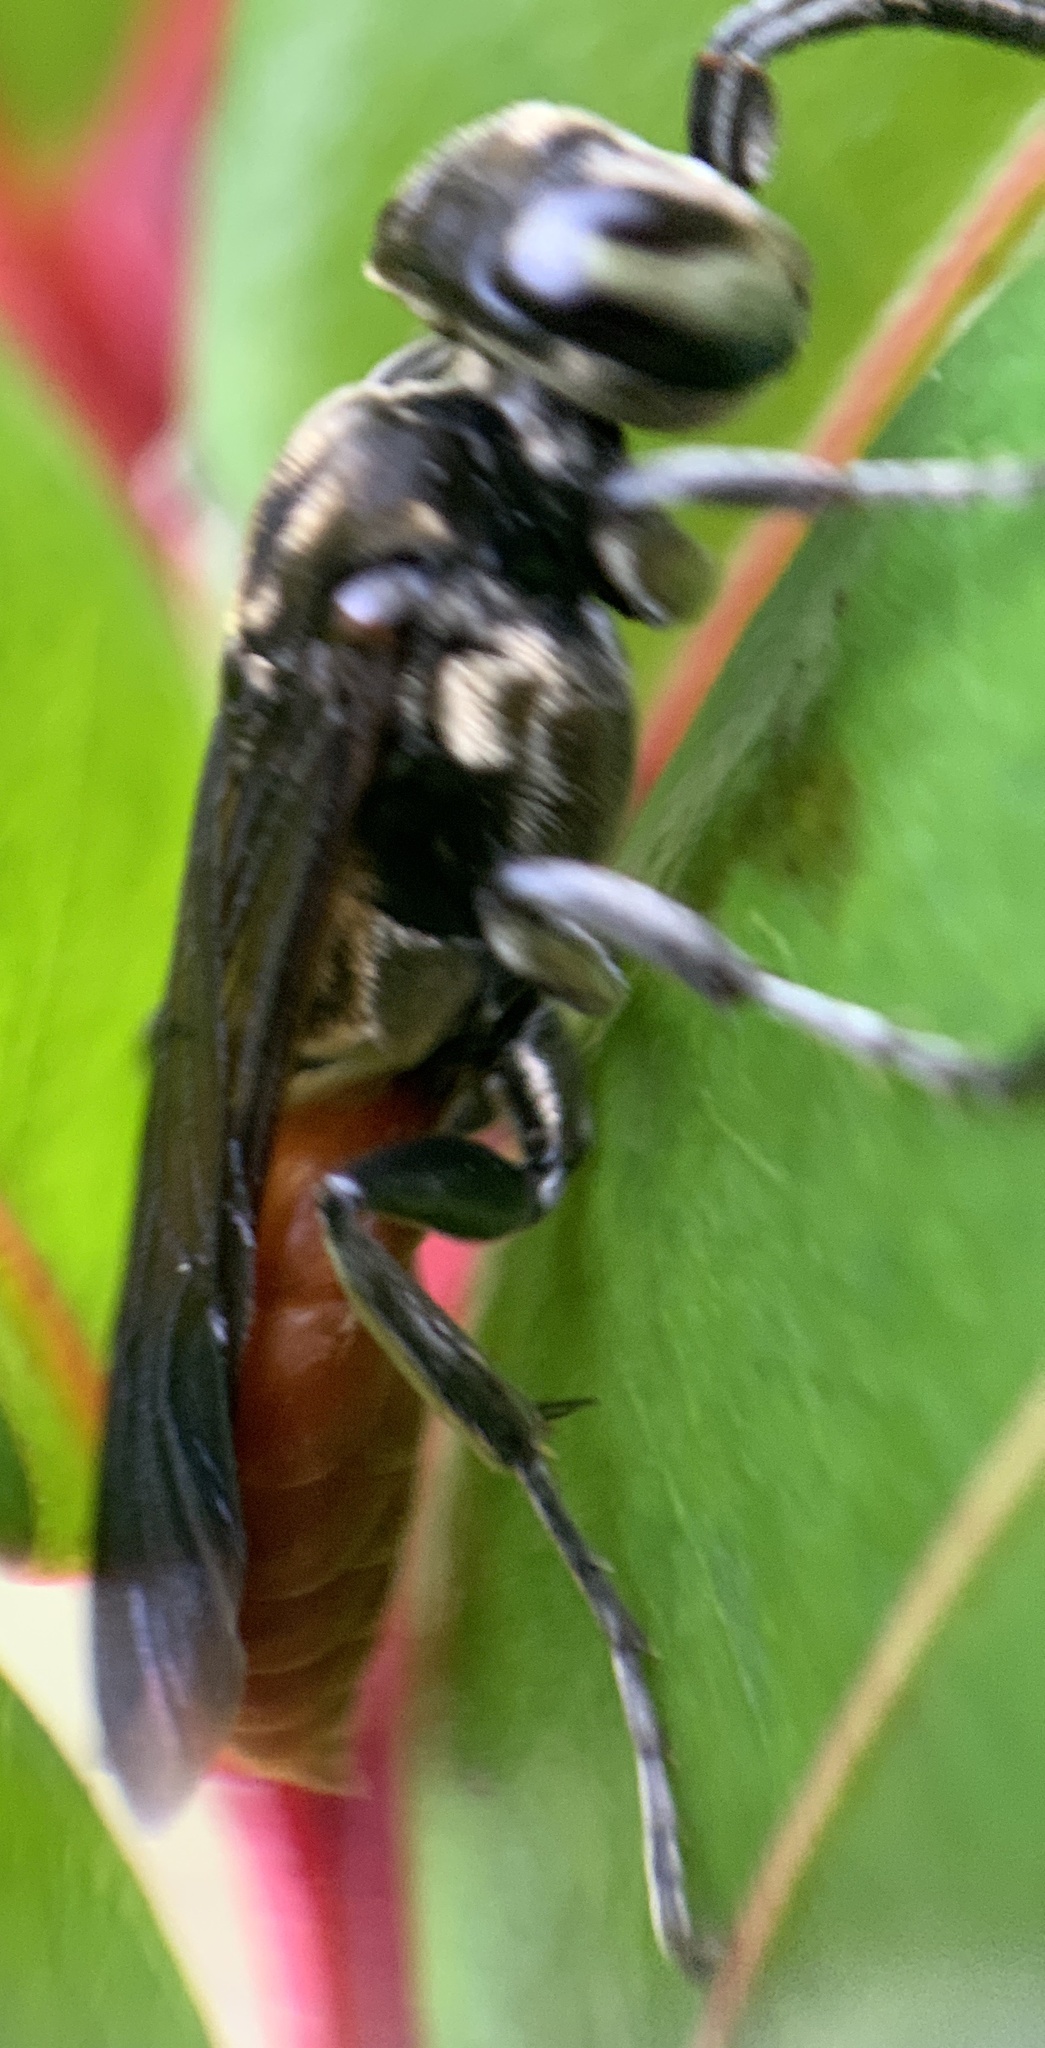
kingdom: Animalia
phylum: Arthropoda
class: Insecta
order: Hymenoptera
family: Crabronidae
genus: Larra
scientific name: Larra bicolor
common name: Wasp
